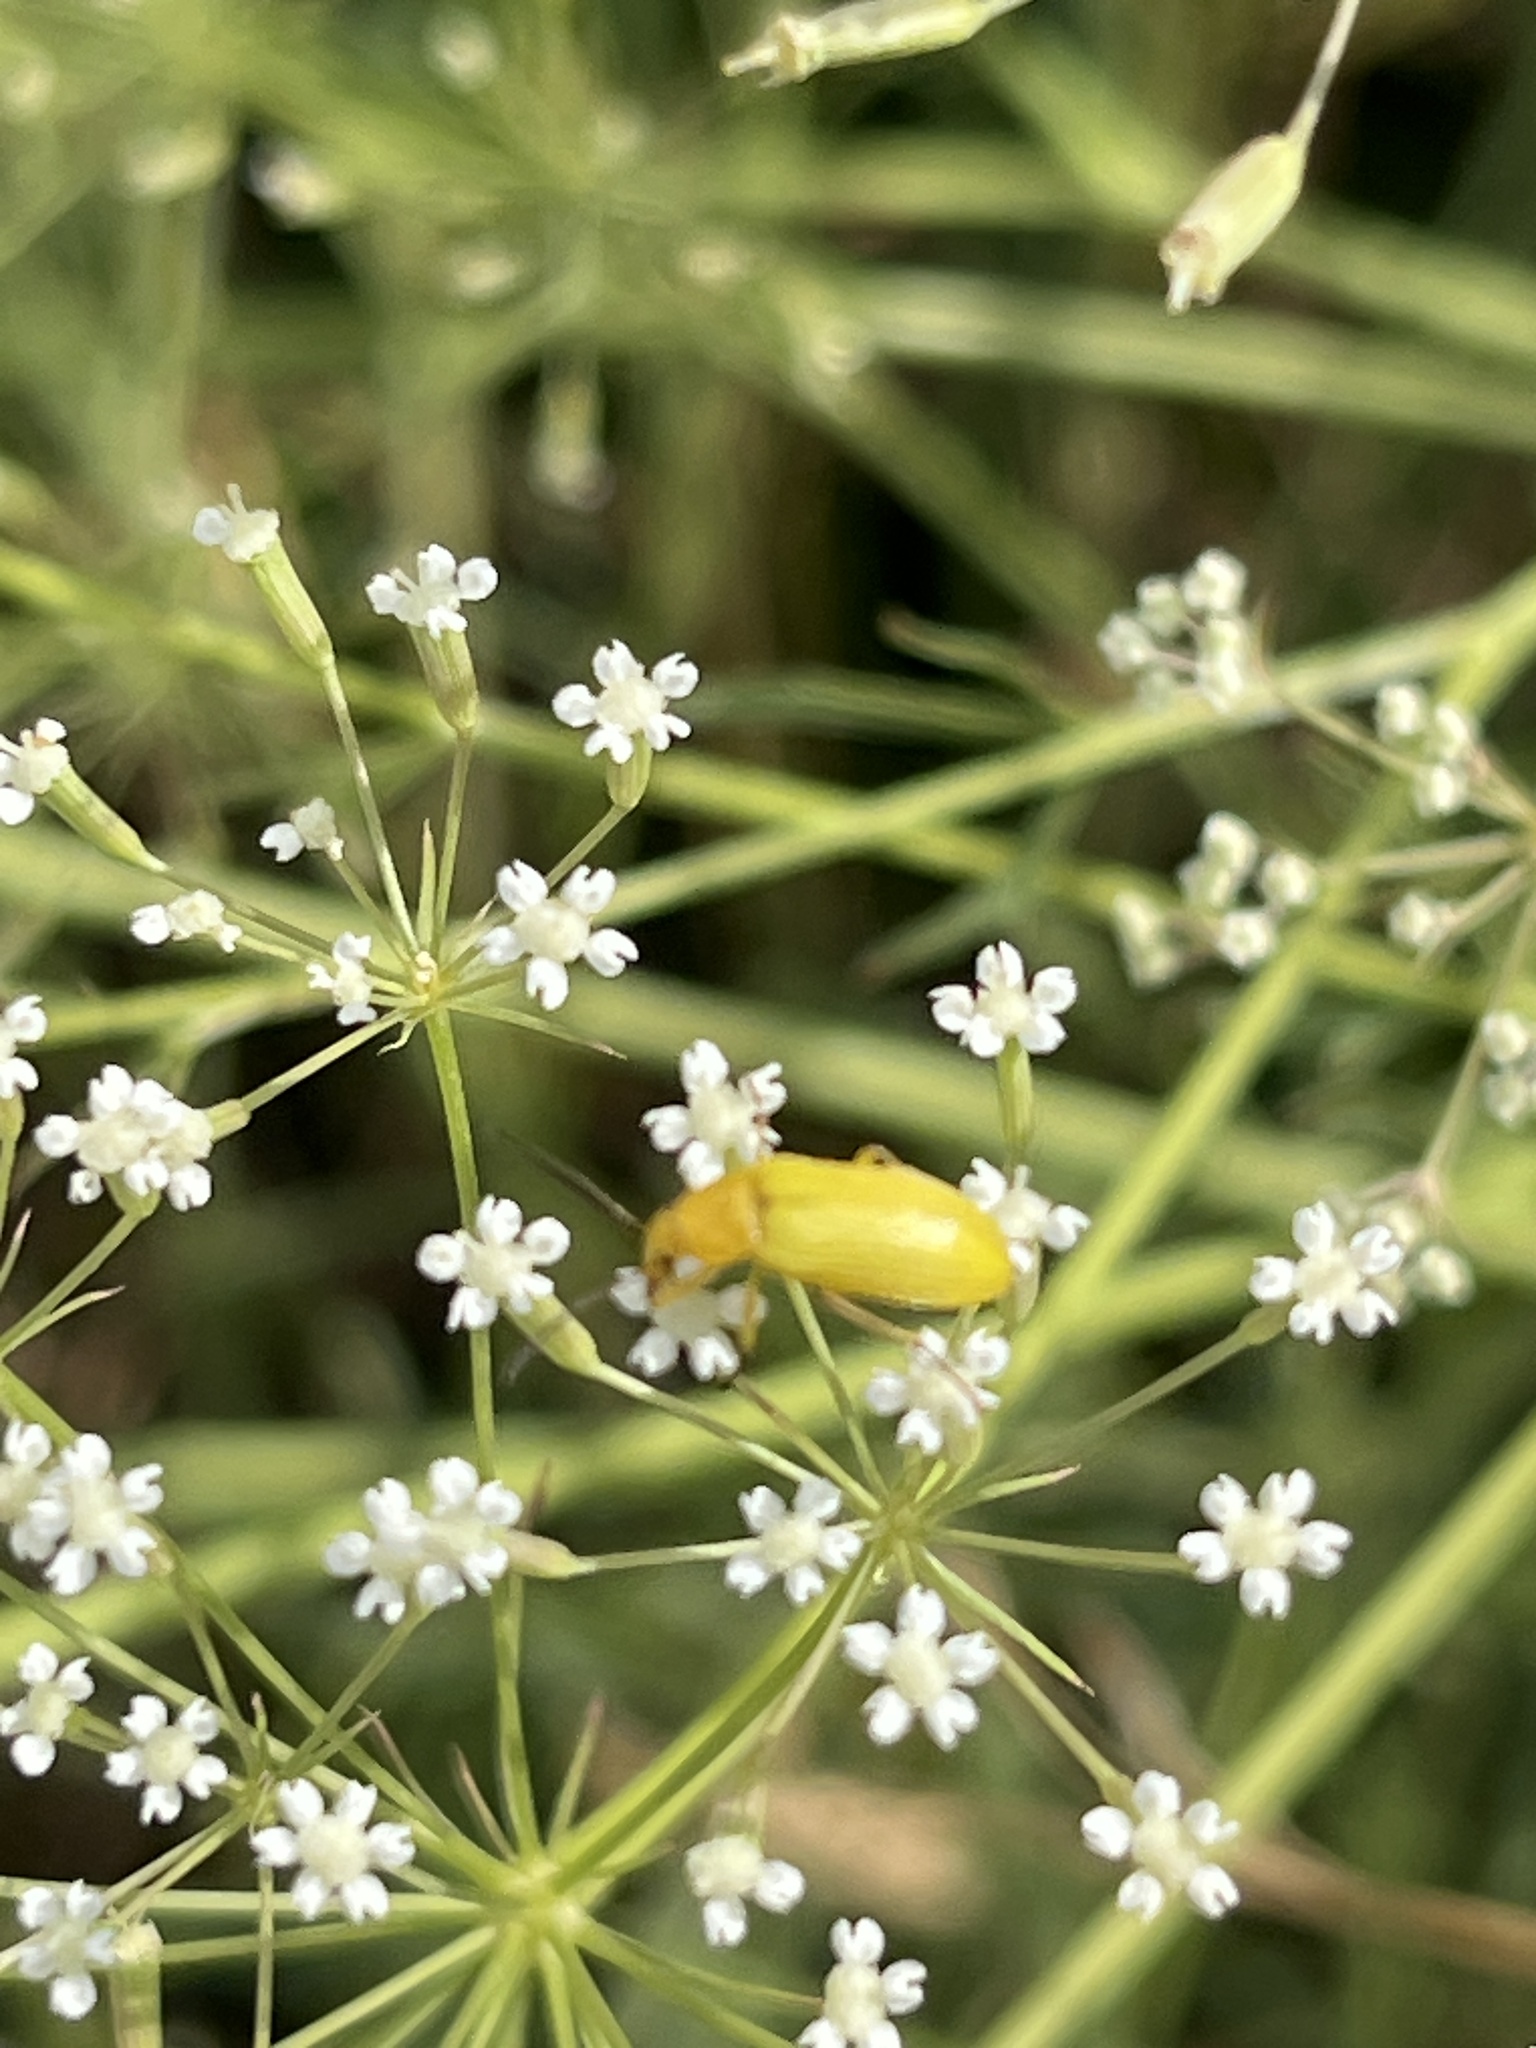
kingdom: Animalia
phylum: Arthropoda
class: Insecta
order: Coleoptera
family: Tenebrionidae
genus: Cteniopus
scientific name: Cteniopus sulphureus
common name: Sulphur beetle
